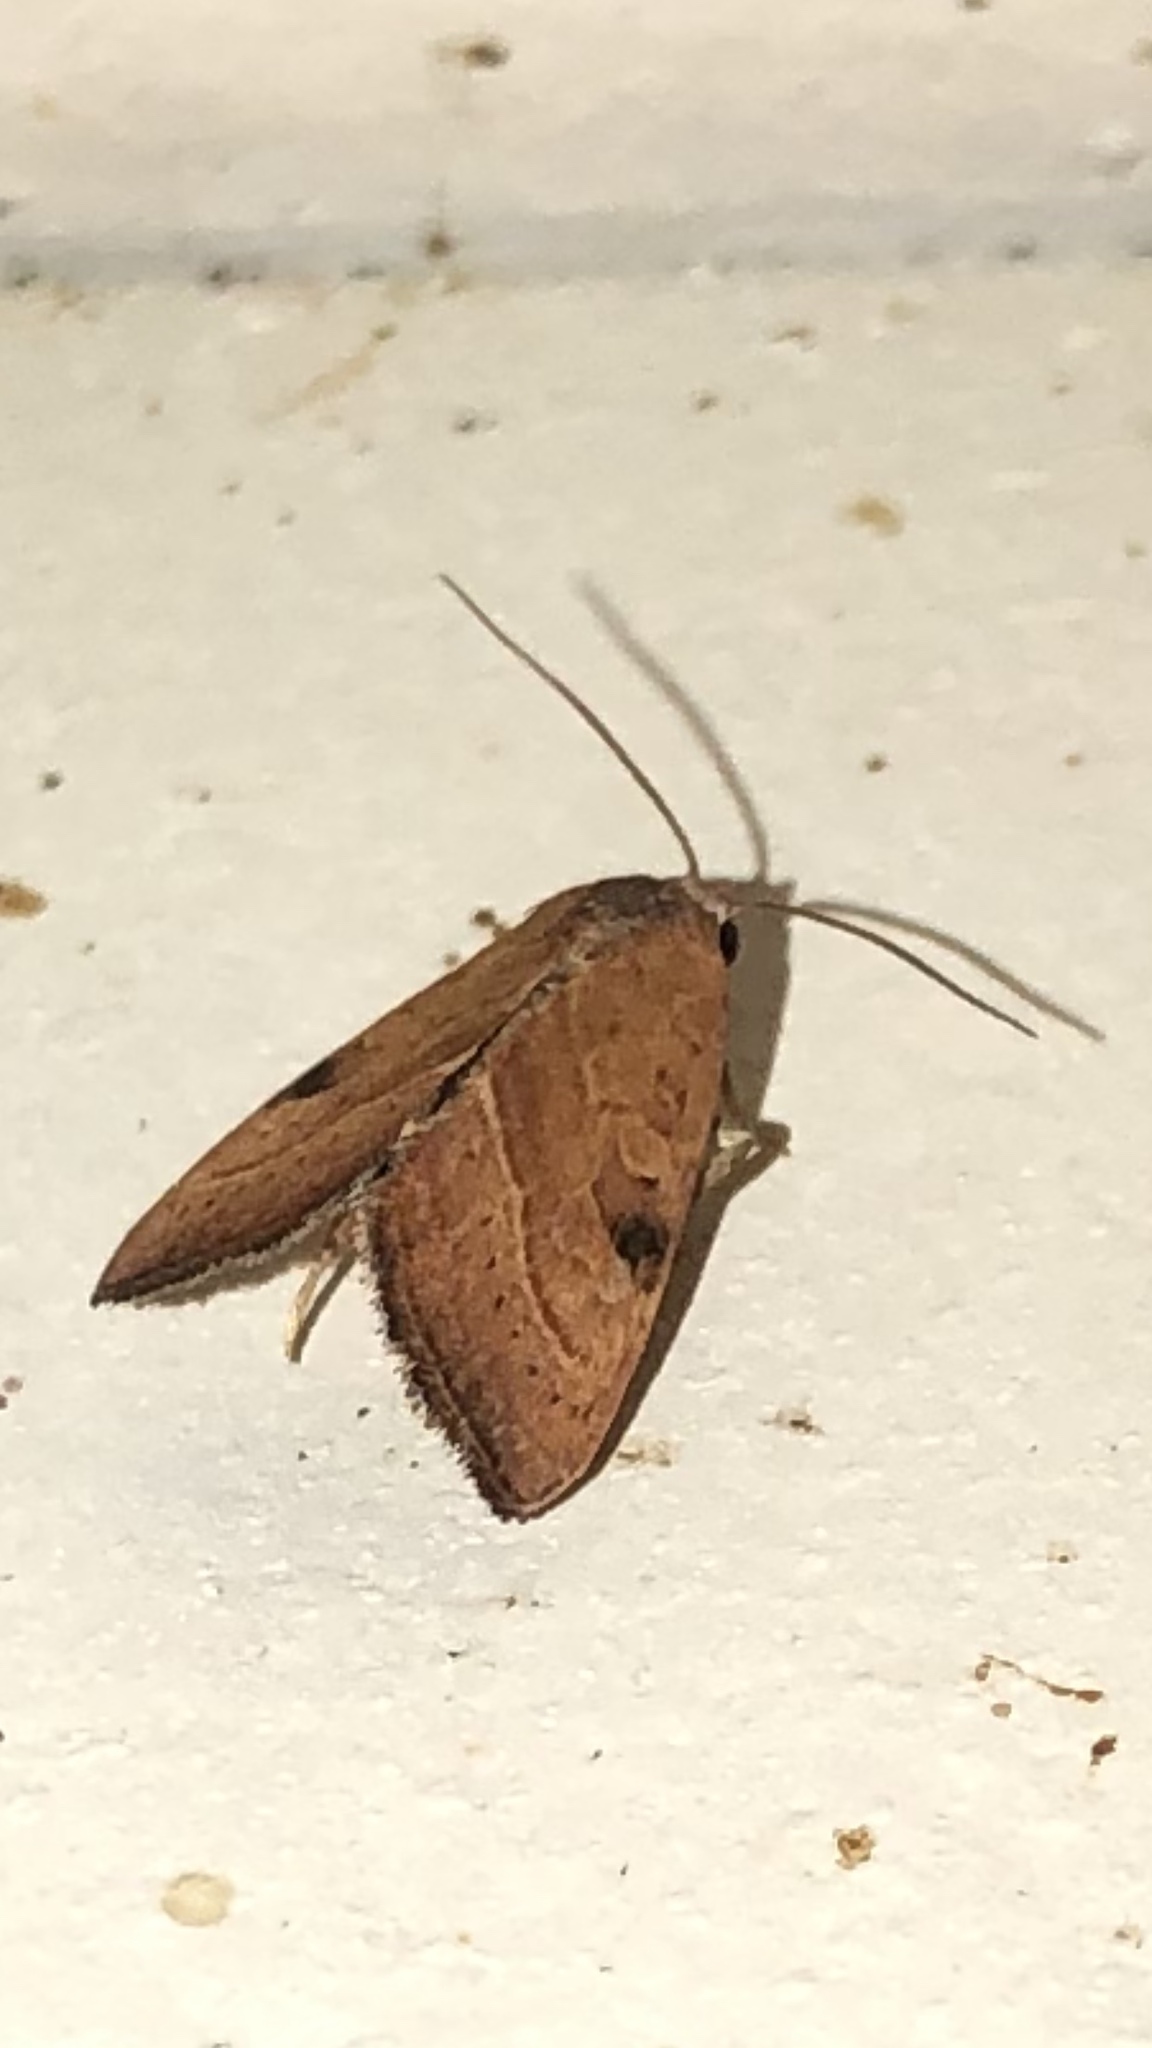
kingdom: Animalia
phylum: Arthropoda
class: Insecta
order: Lepidoptera
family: Noctuidae
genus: Galgula
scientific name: Galgula partita
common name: Wedgeling
